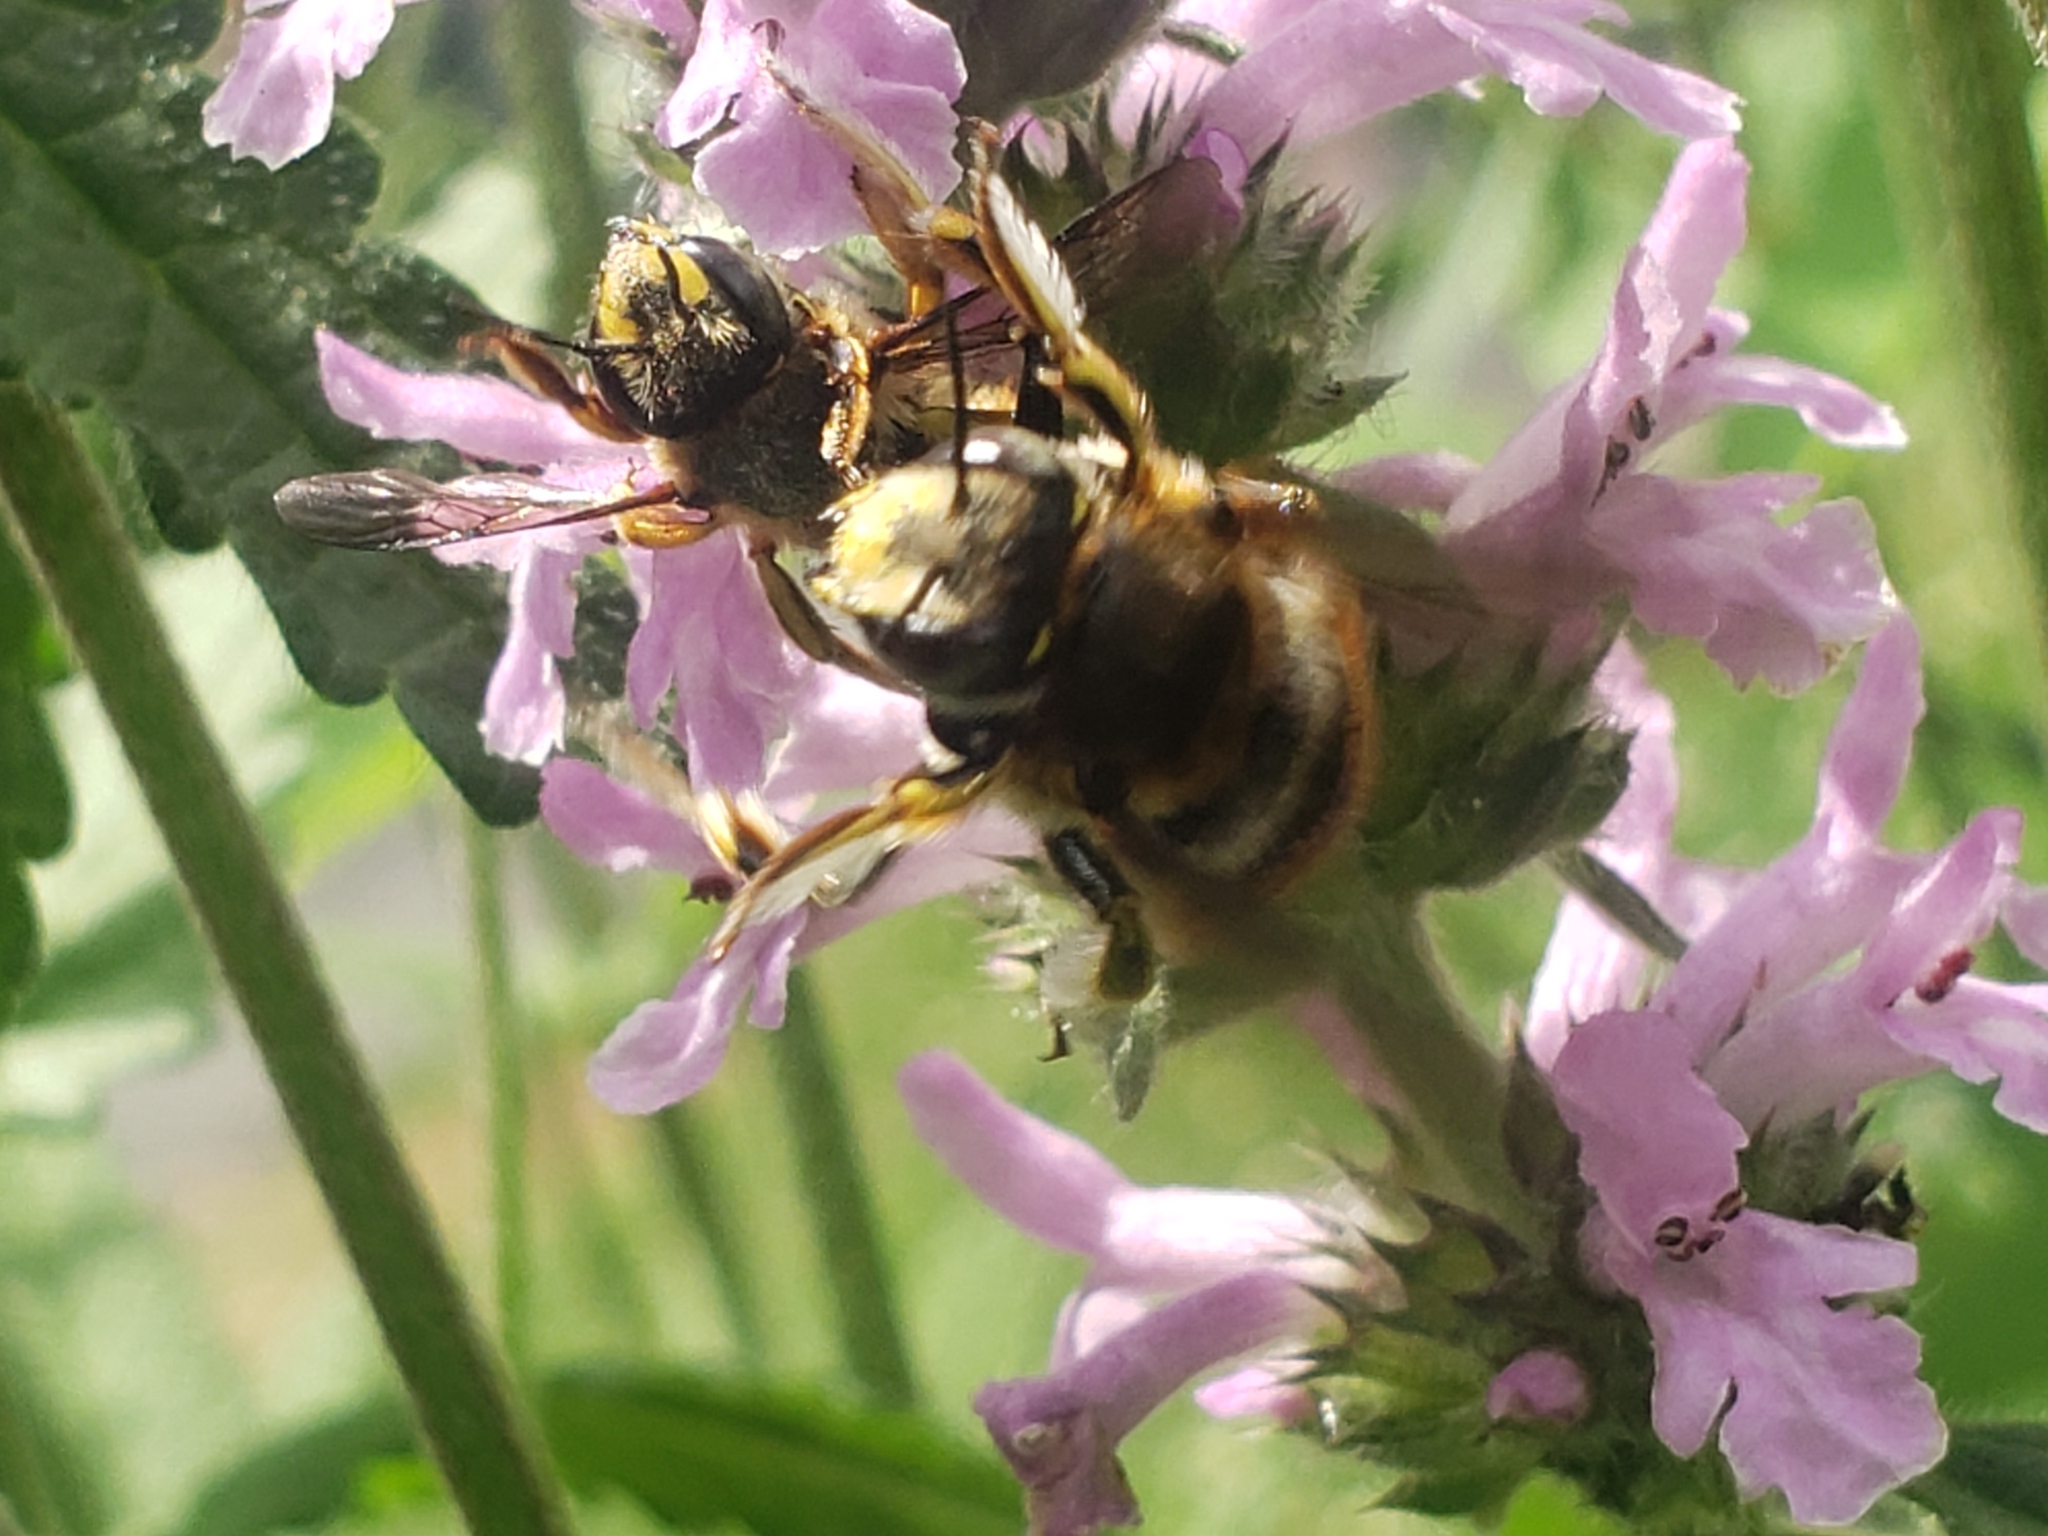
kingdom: Animalia
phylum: Arthropoda
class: Insecta
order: Hymenoptera
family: Megachilidae
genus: Anthidium
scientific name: Anthidium manicatum
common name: Wool carder bee
